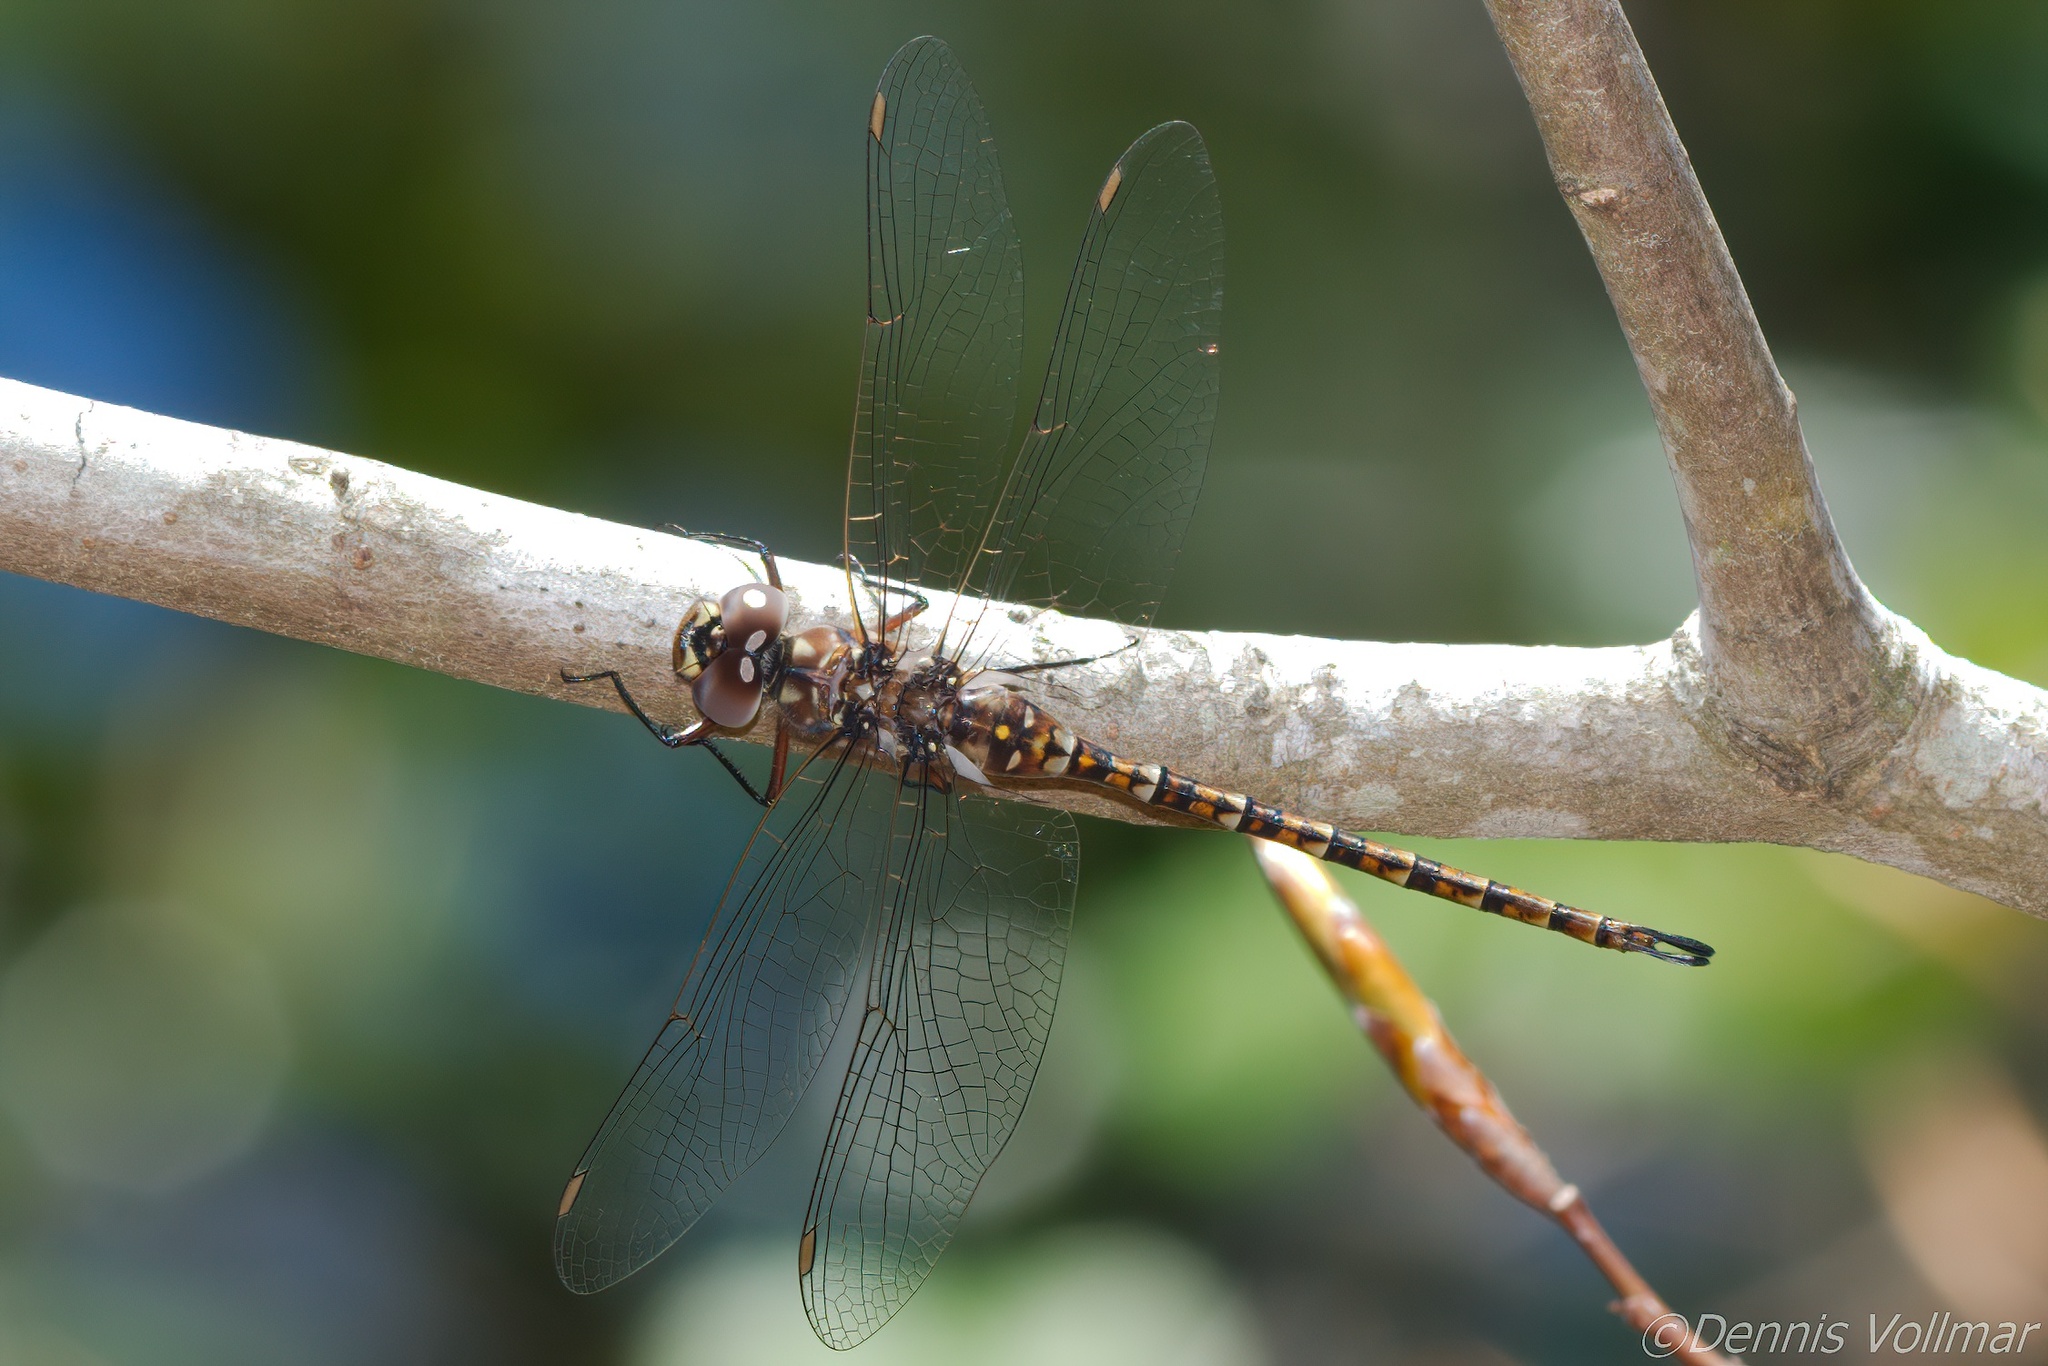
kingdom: Animalia
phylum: Arthropoda
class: Insecta
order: Odonata
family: Aeshnidae
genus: Gomphaeschna
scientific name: Gomphaeschna furcillata
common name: Harlequin darner
